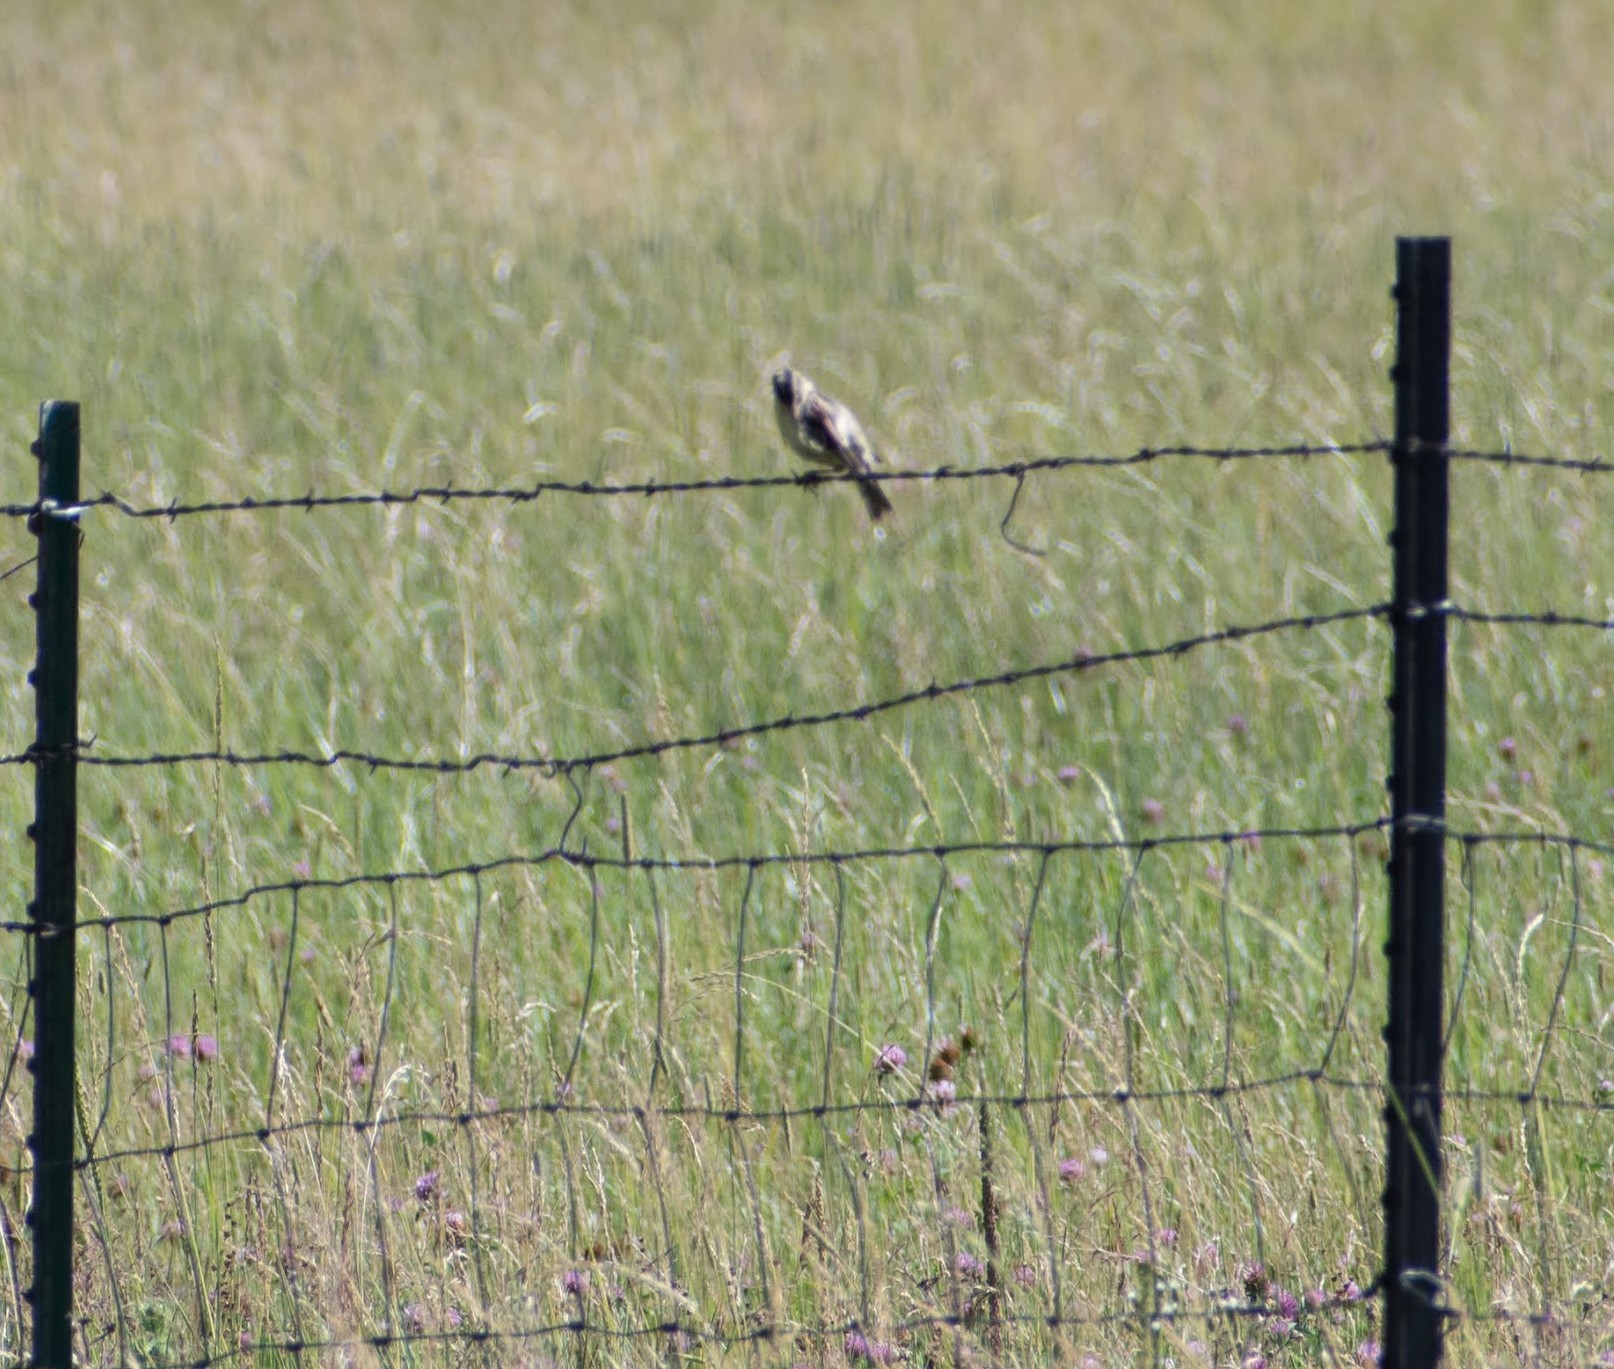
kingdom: Animalia
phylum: Chordata
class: Aves
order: Passeriformes
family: Icteridae
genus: Dolichonyx
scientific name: Dolichonyx oryzivorus
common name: Bobolink
